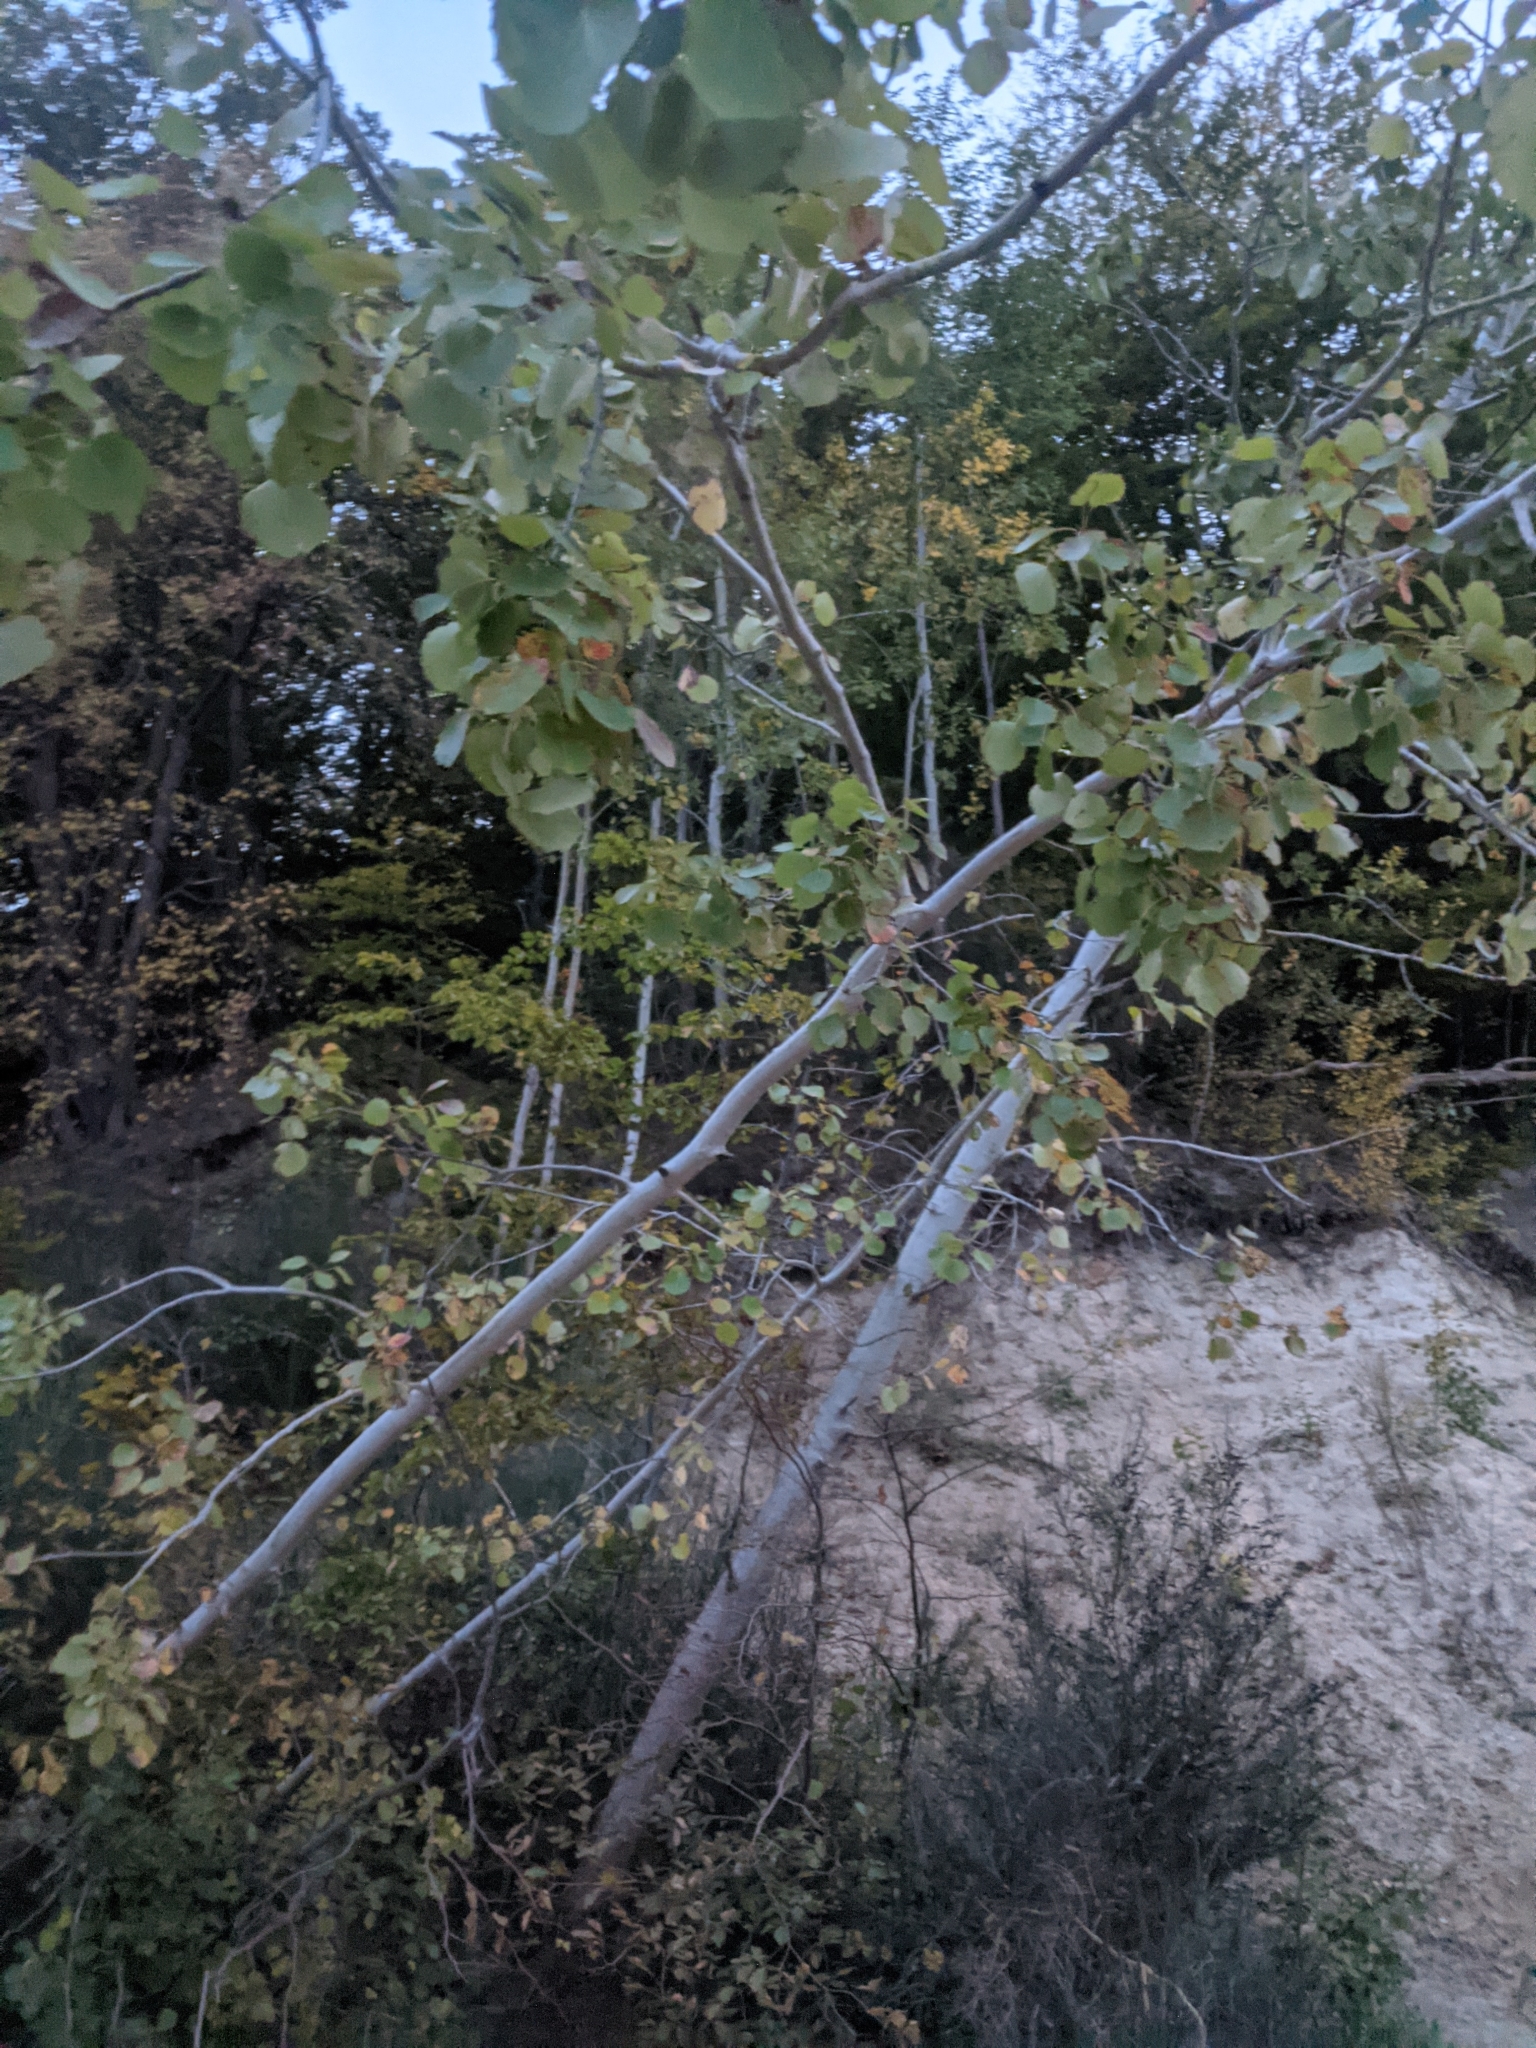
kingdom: Plantae
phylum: Tracheophyta
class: Magnoliopsida
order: Malpighiales
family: Salicaceae
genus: Populus
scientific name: Populus tremula
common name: European aspen
